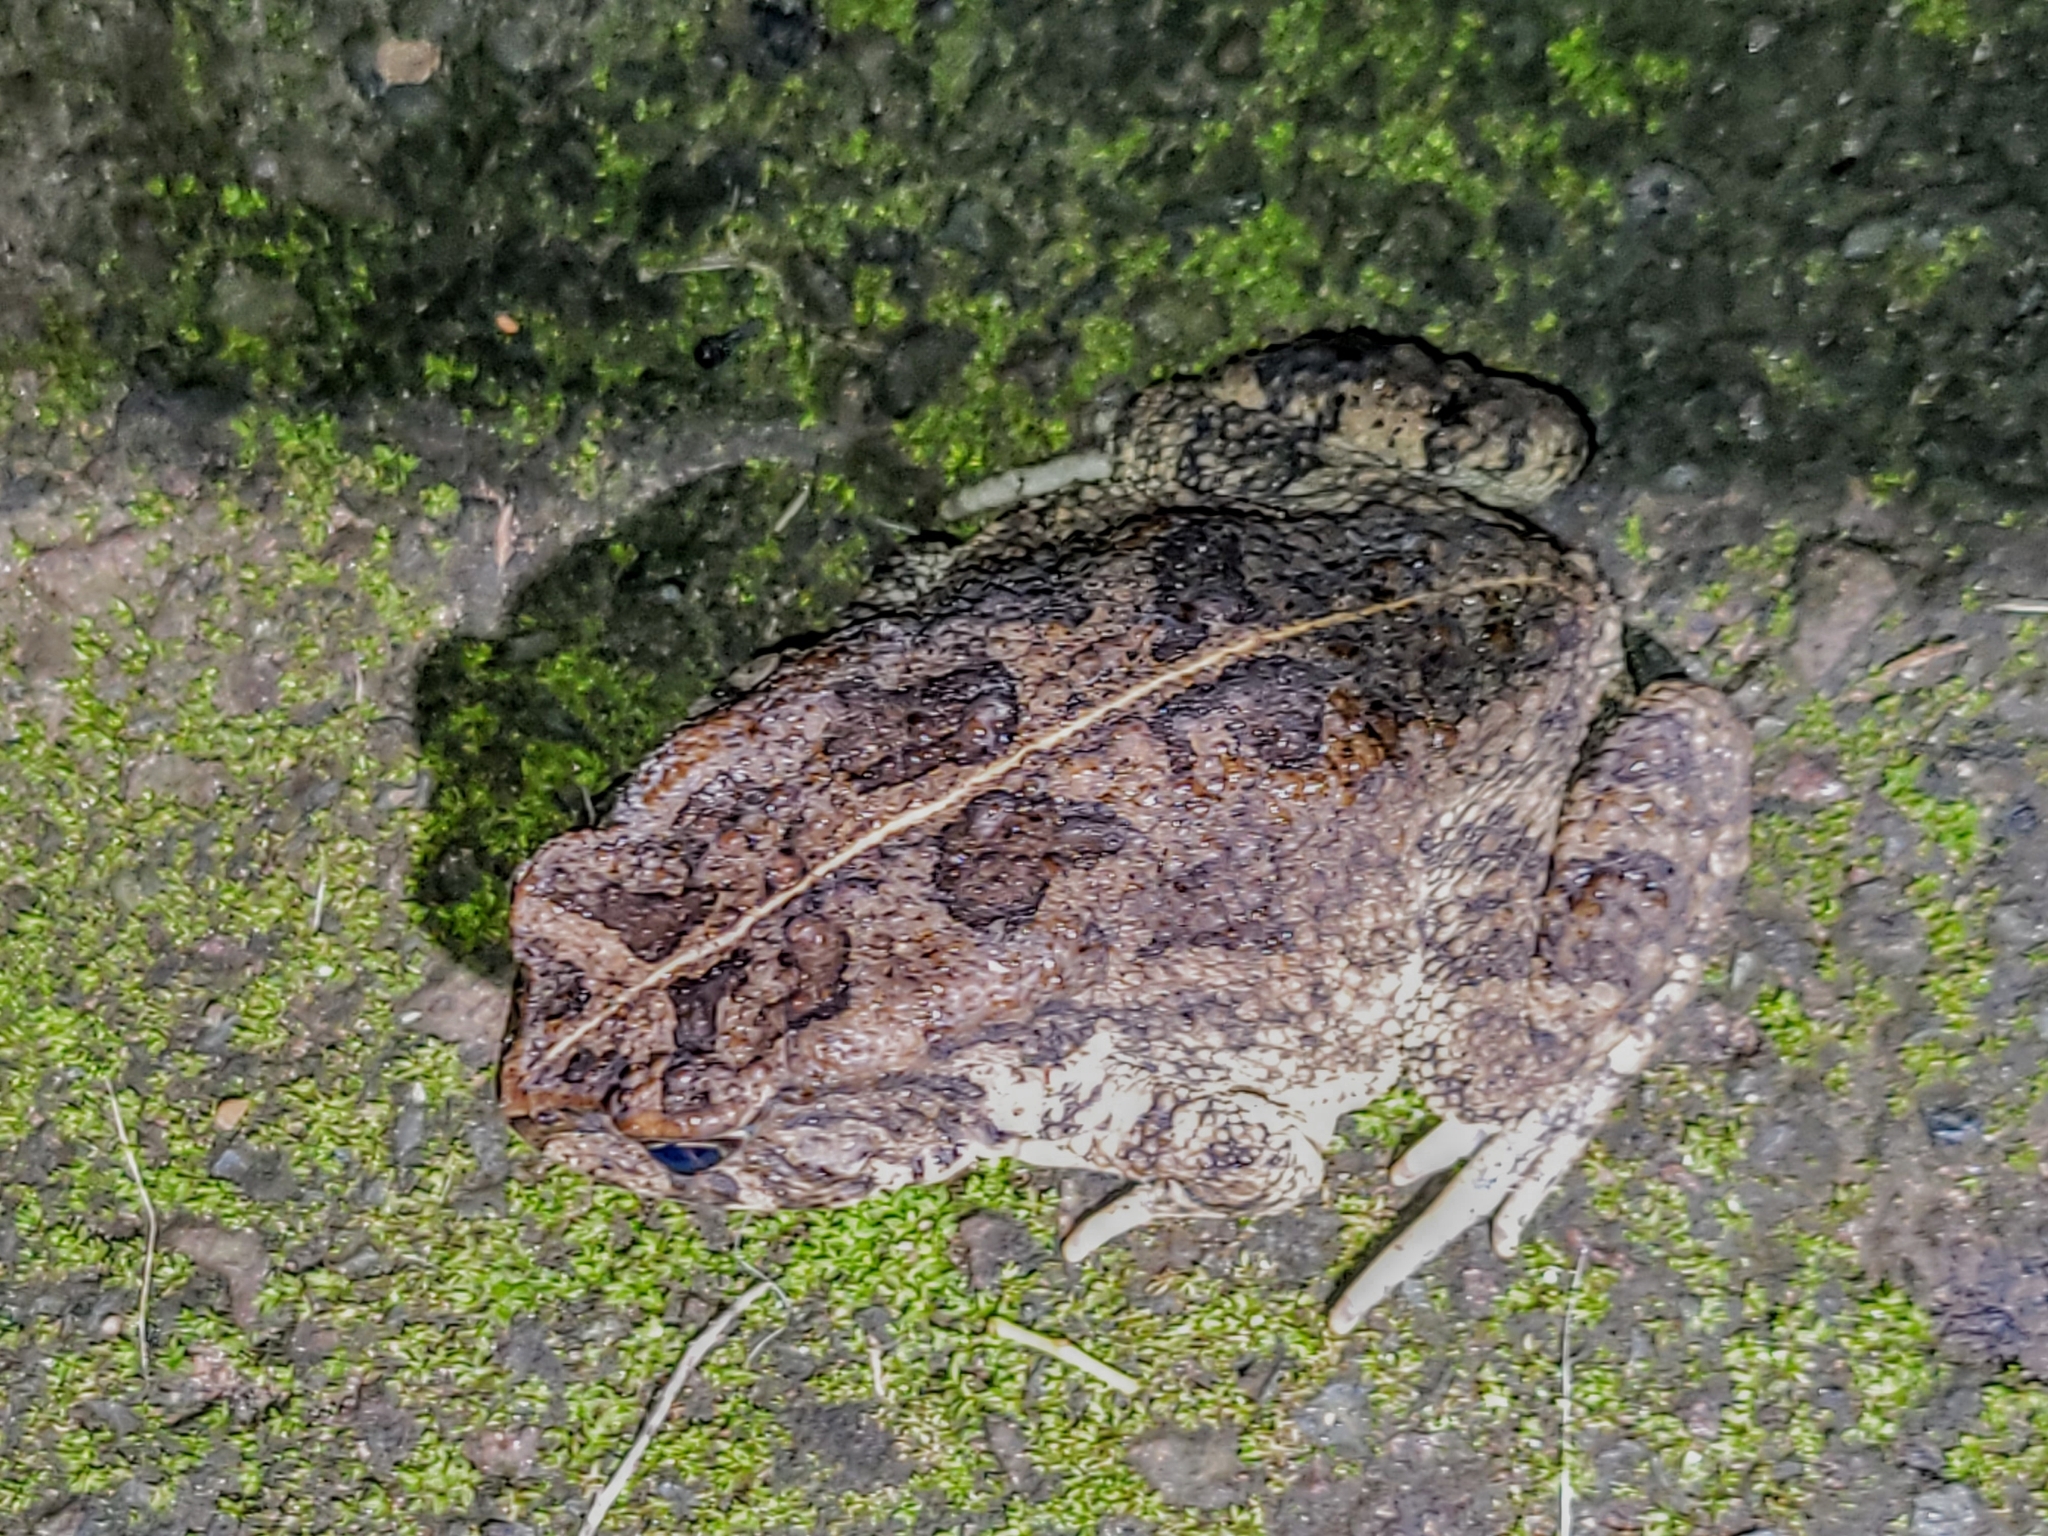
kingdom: Animalia
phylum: Chordata
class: Amphibia
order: Anura
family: Bufonidae
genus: Sclerophrys
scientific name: Sclerophrys gutturalis
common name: African common toad
